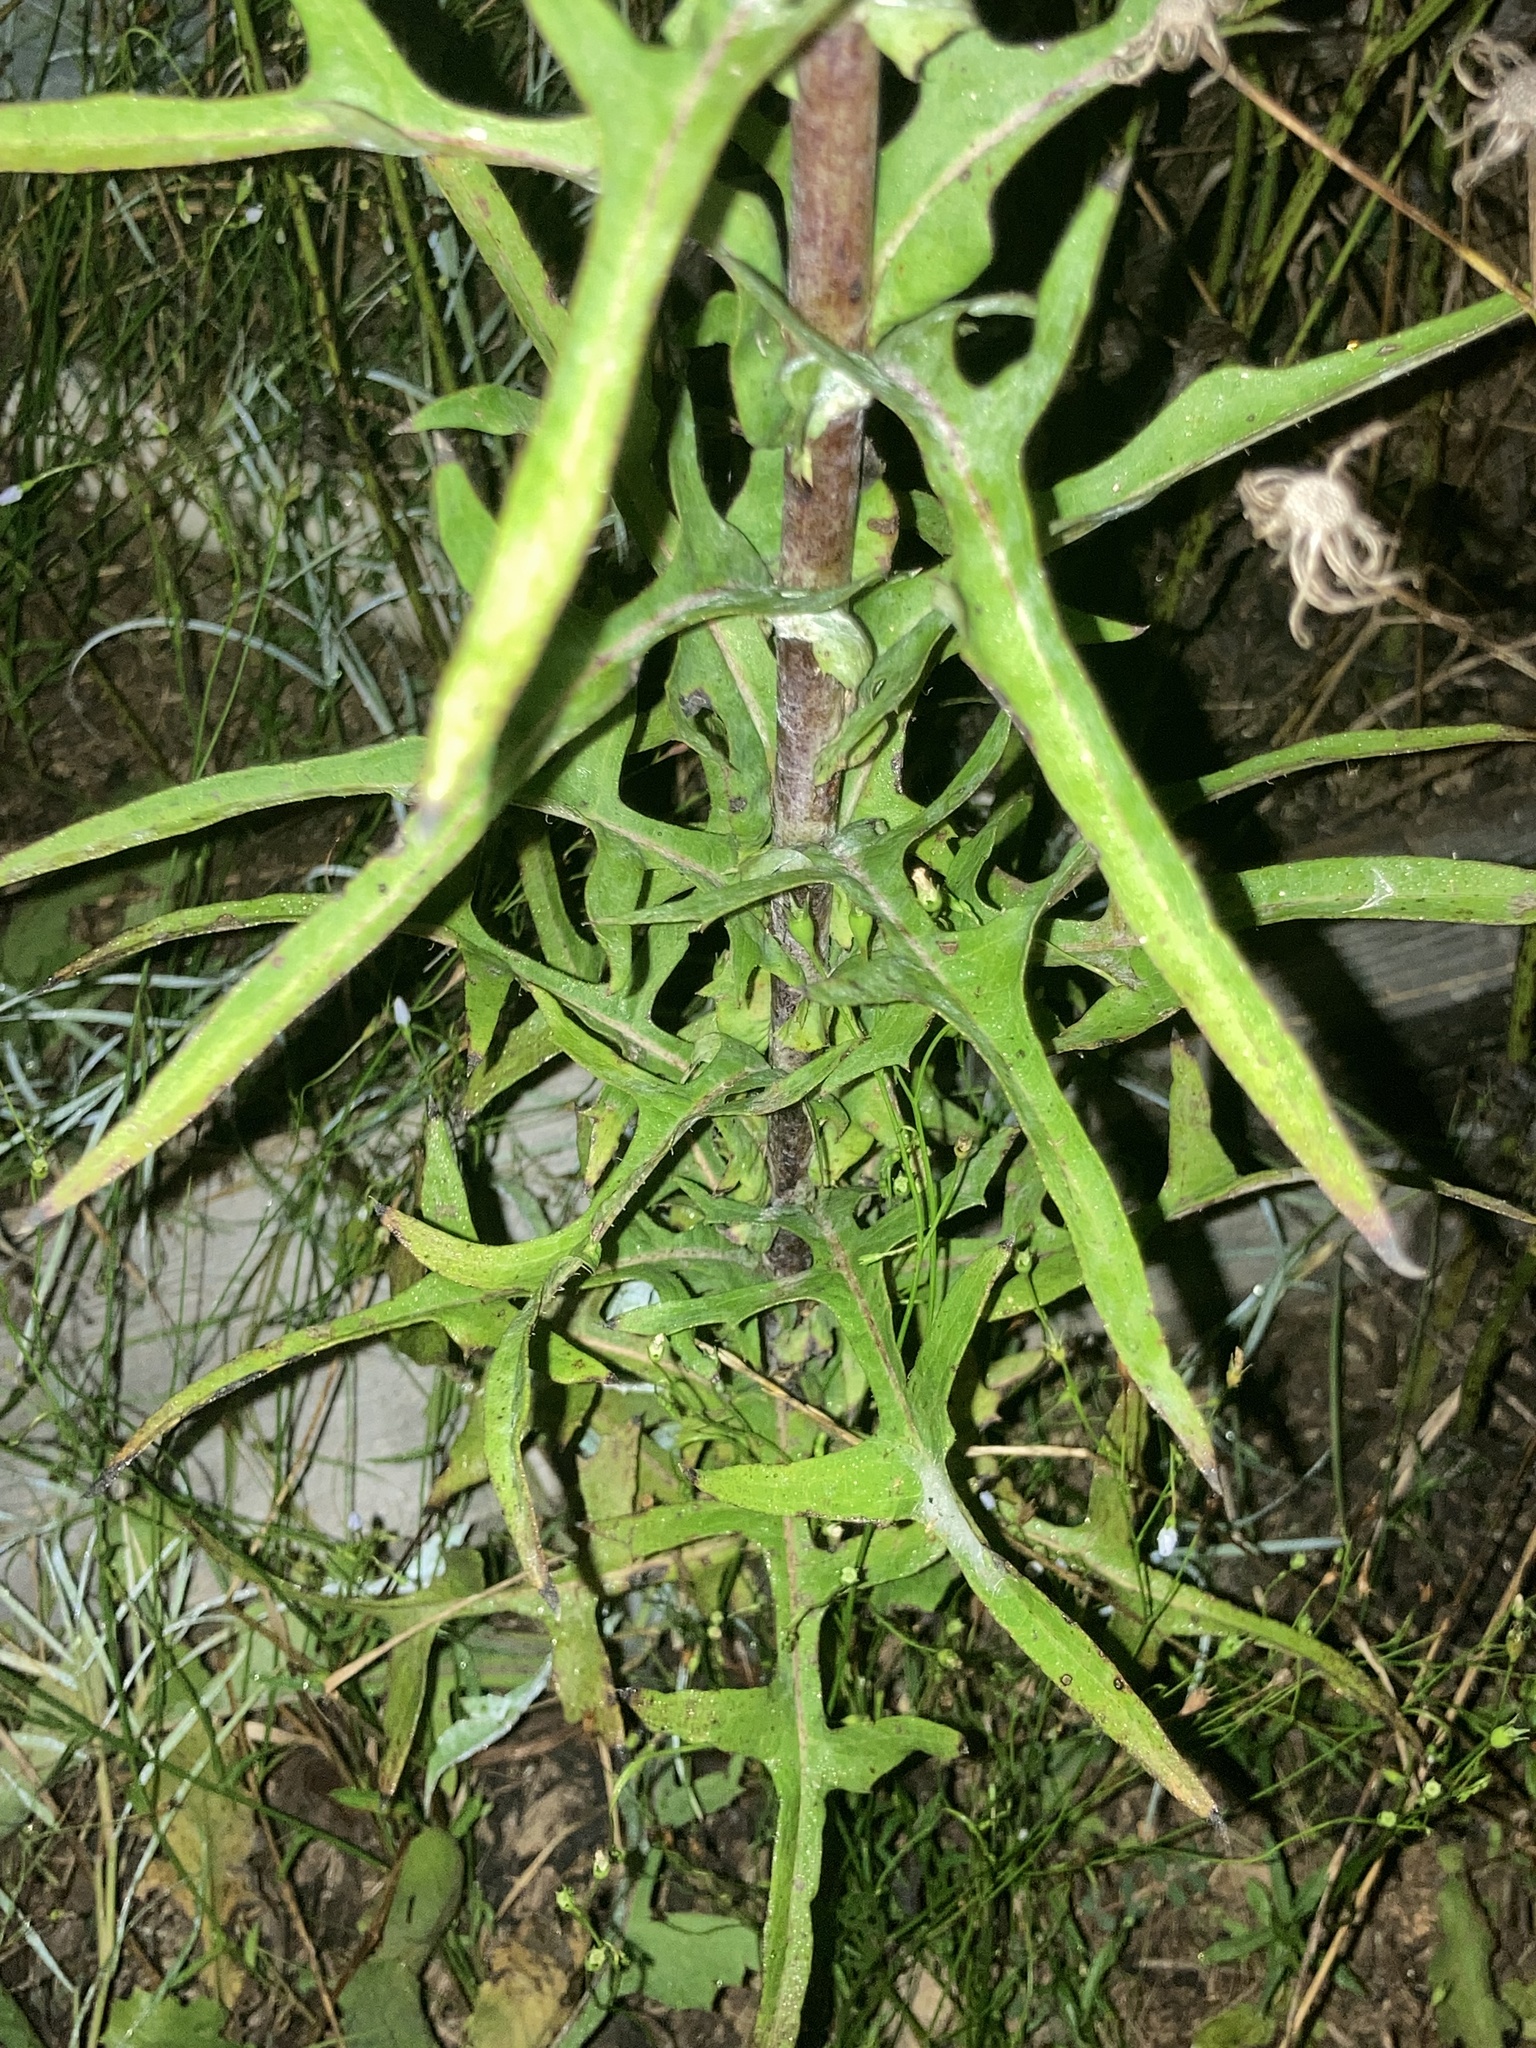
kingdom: Plantae
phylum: Tracheophyta
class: Magnoliopsida
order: Asterales
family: Asteraceae
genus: Lactuca
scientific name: Lactuca canadensis
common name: Canada lettuce
